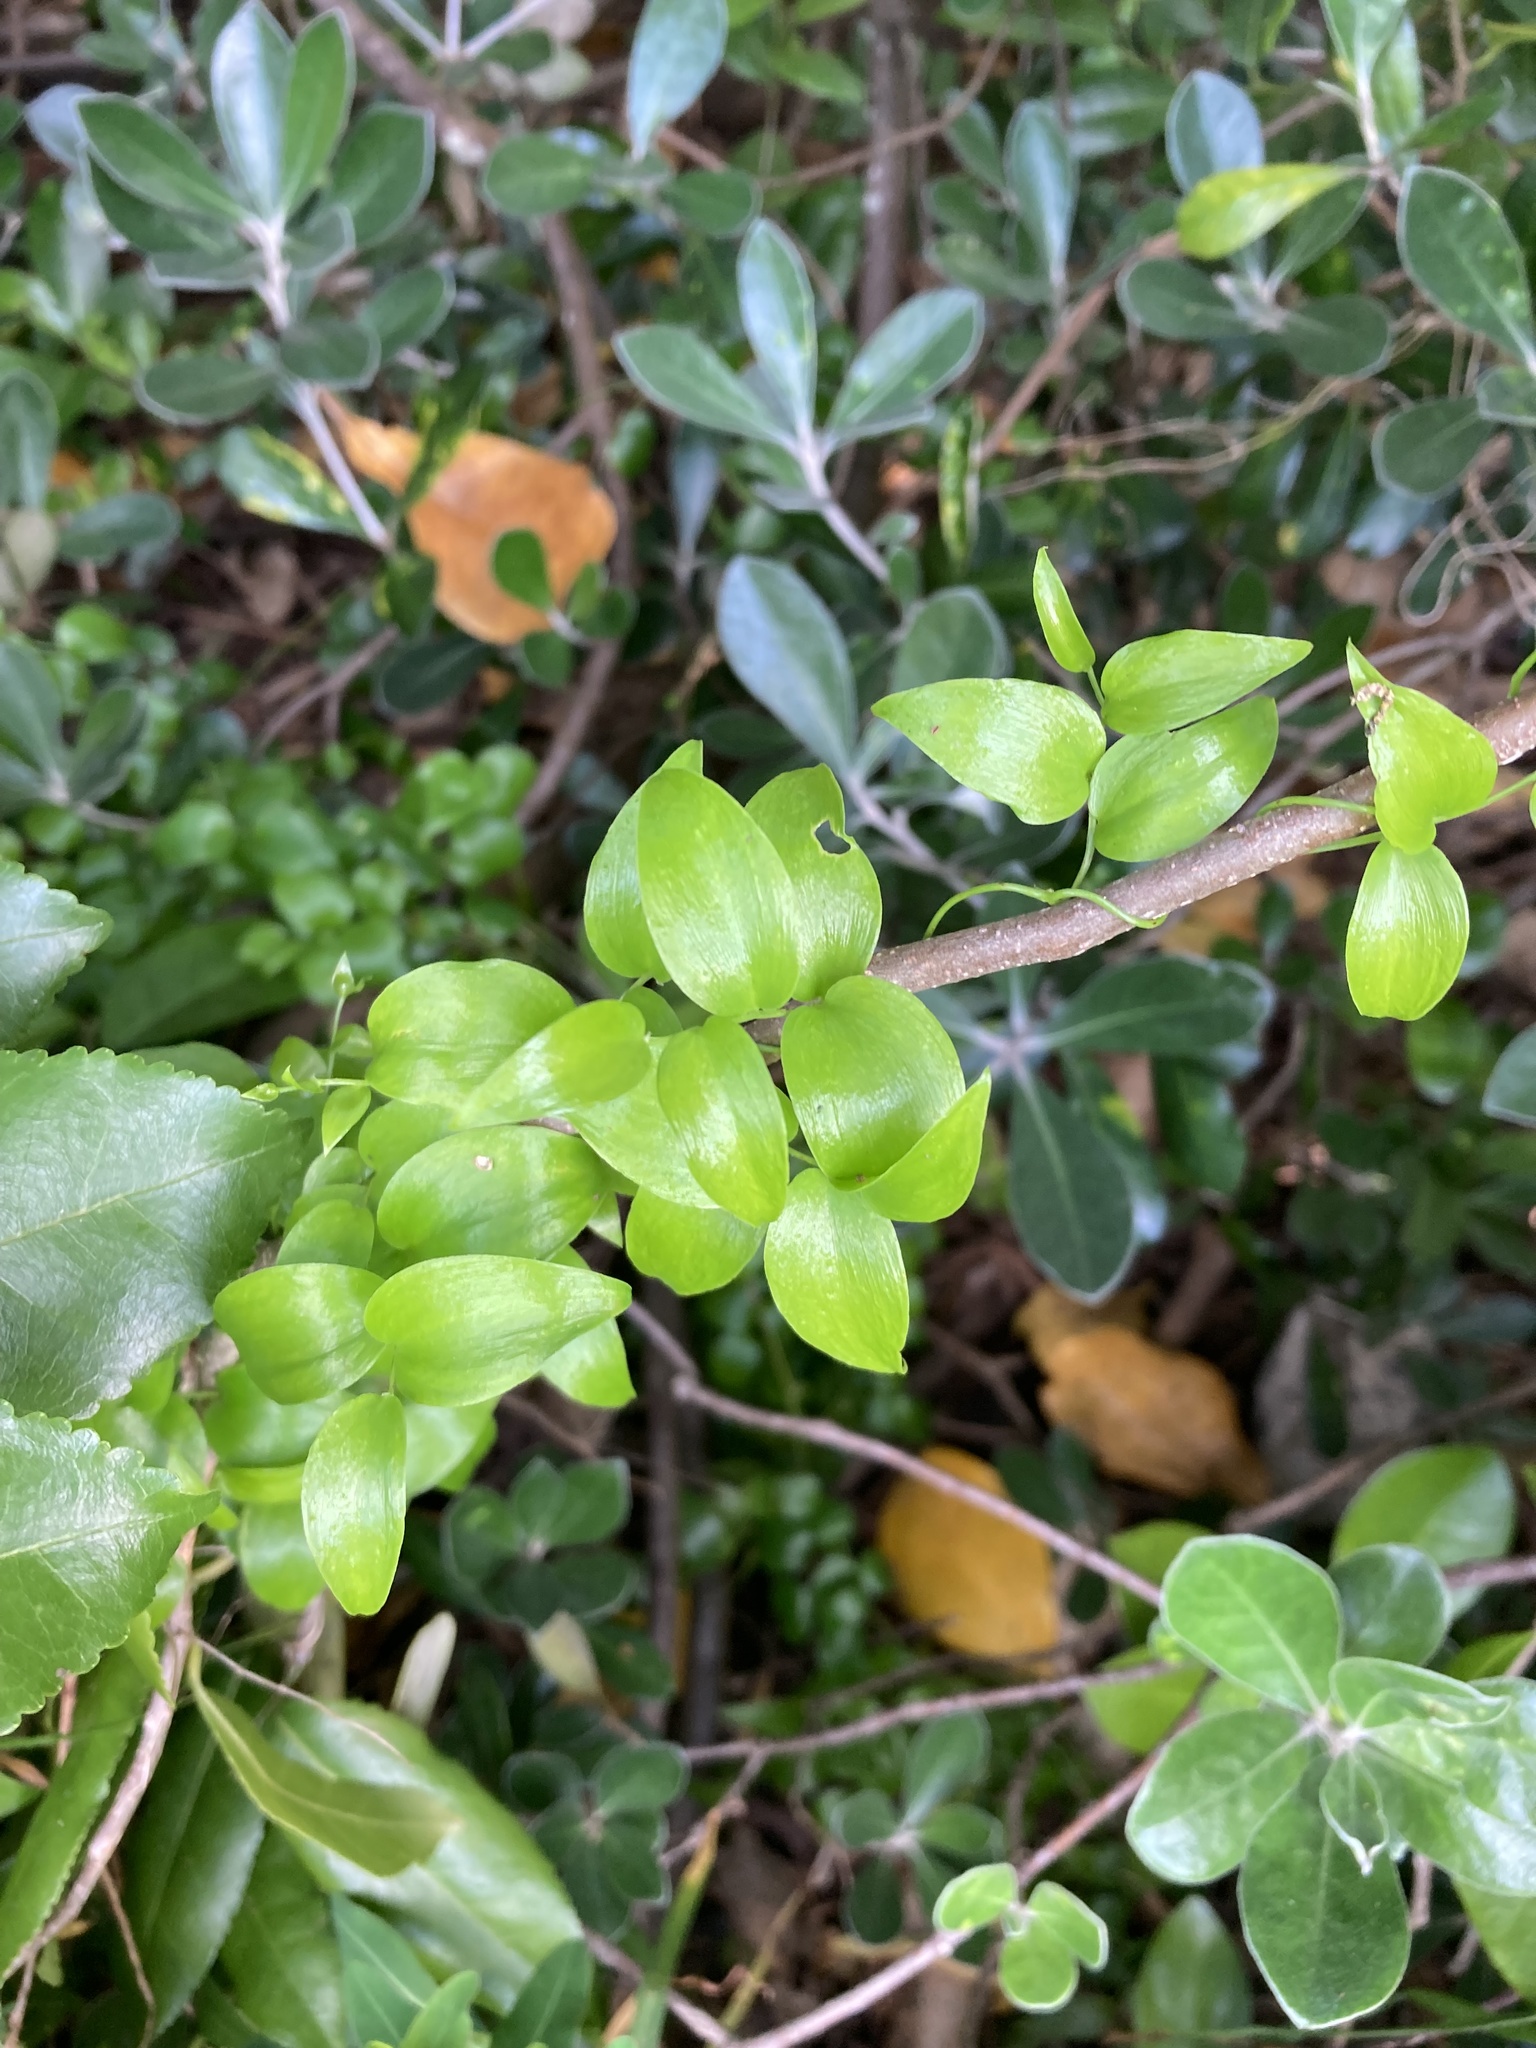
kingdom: Plantae
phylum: Tracheophyta
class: Liliopsida
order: Asparagales
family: Asparagaceae
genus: Asparagus
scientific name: Asparagus asparagoides
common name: African asparagus fern
